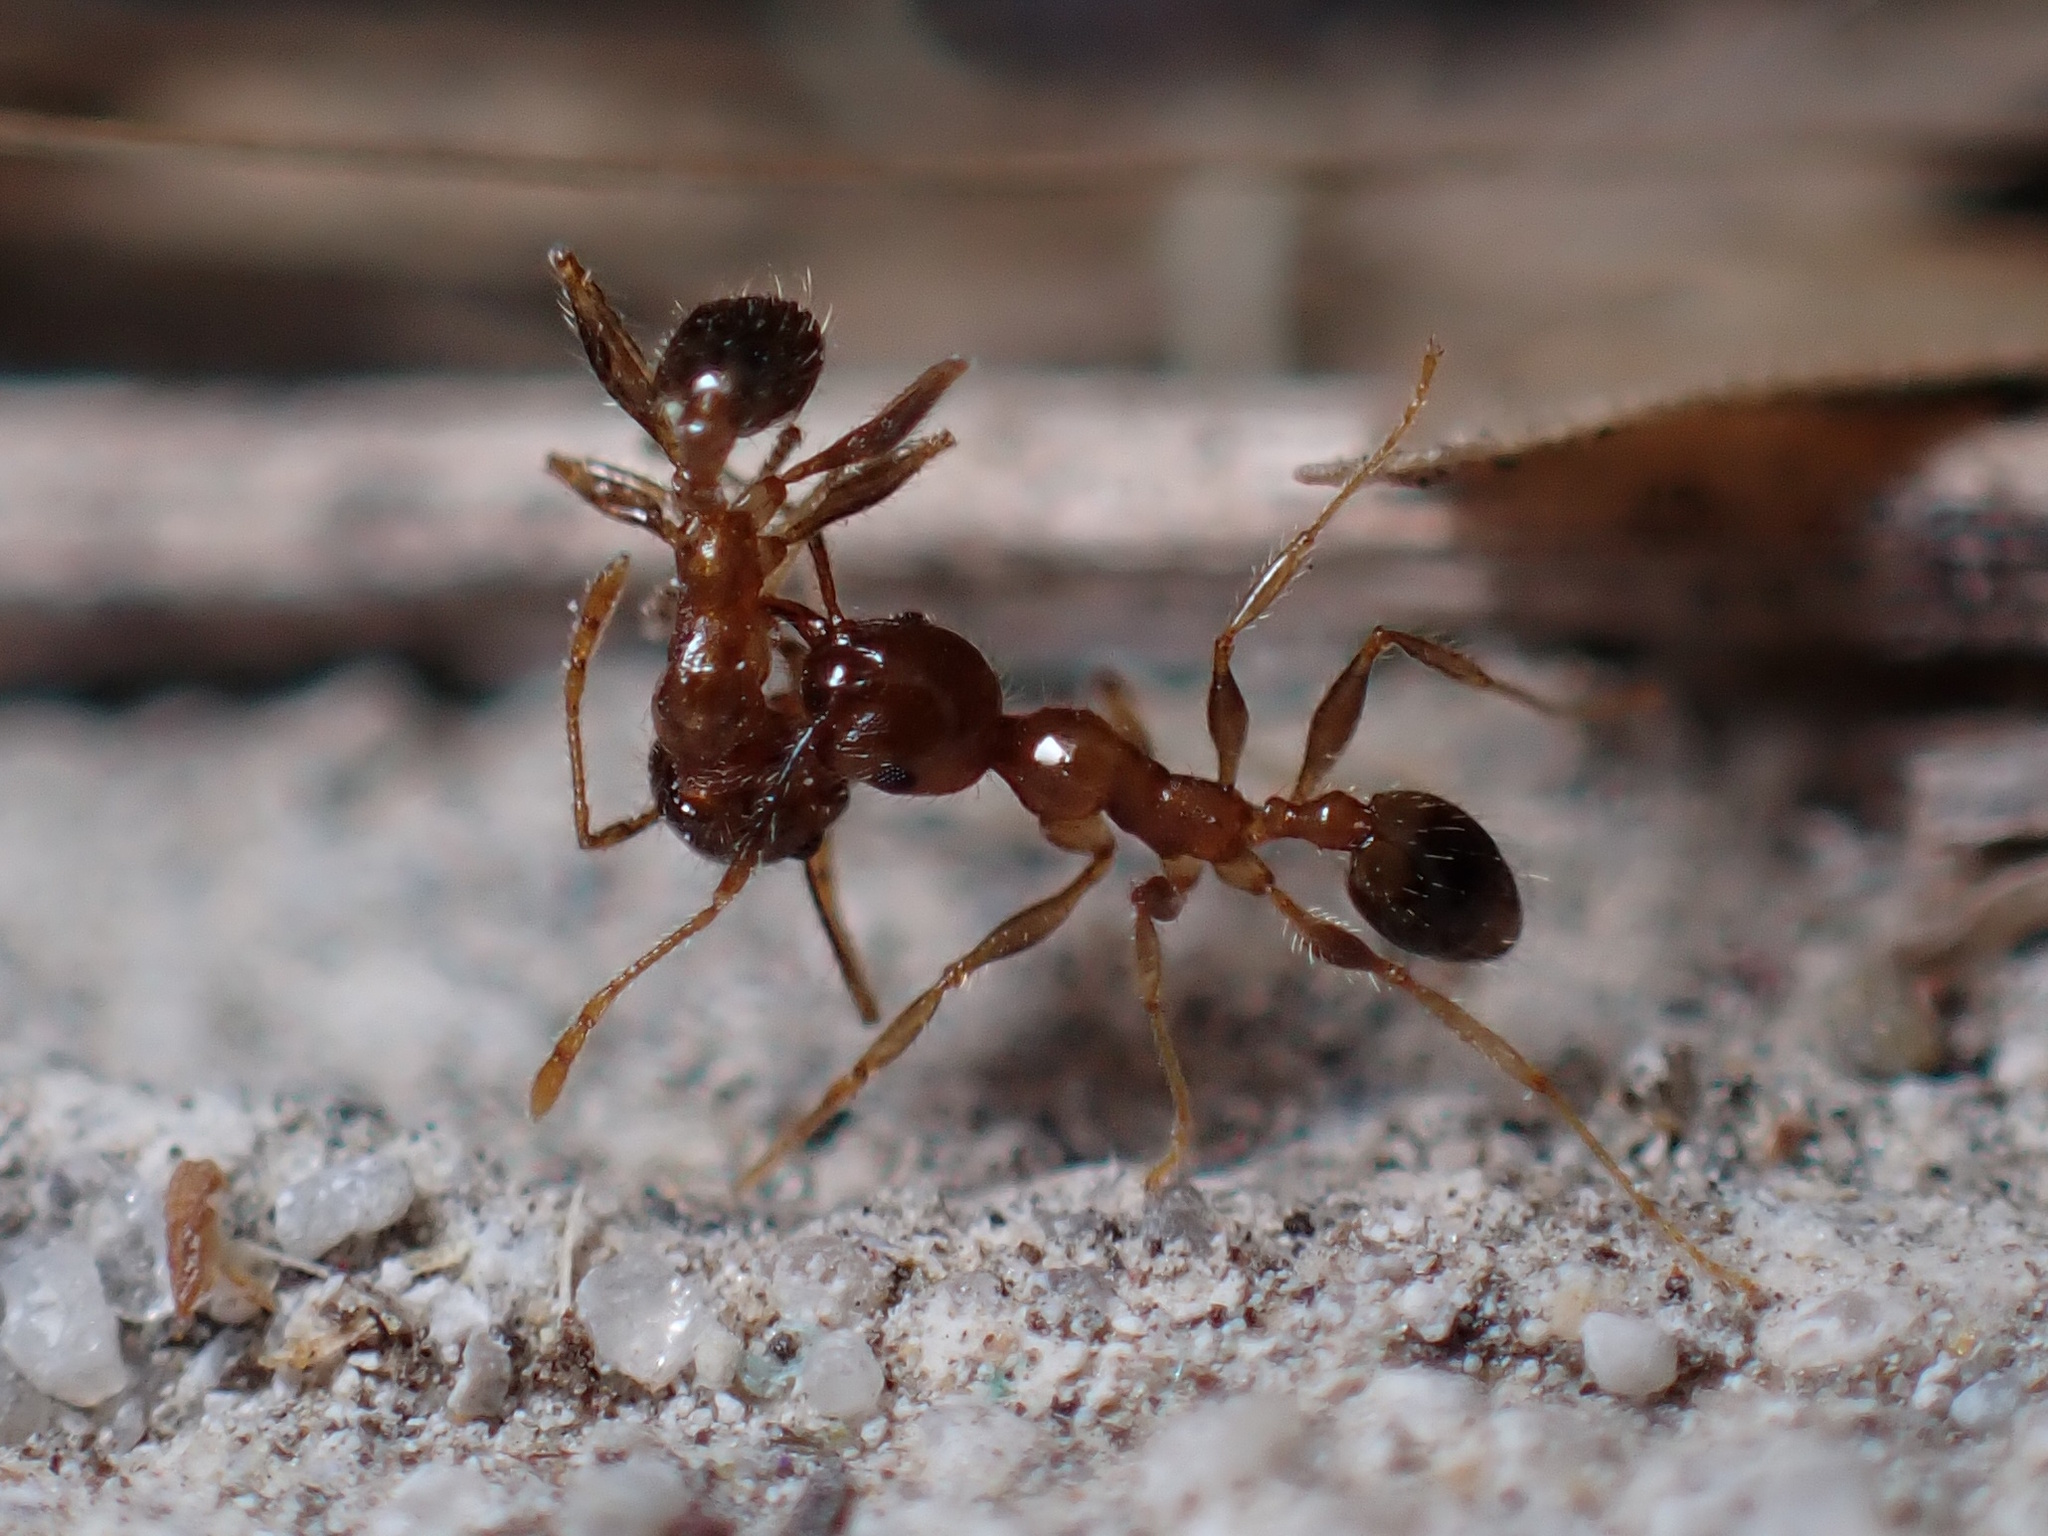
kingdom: Animalia
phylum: Arthropoda
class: Insecta
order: Hymenoptera
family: Formicidae
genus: Pheidole
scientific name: Pheidole megacephala
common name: Bigheaded ant
